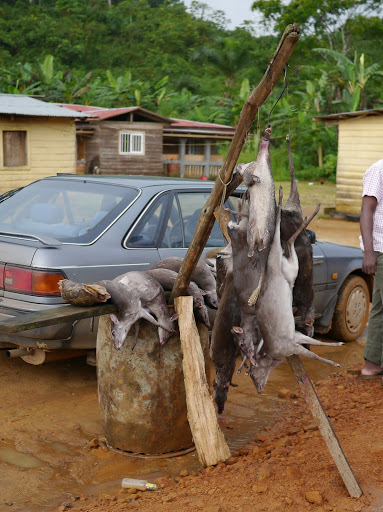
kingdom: Animalia
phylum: Chordata
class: Mammalia
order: Artiodactyla
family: Bovidae
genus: Philantomba
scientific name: Philantomba monticola
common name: Blue duiker
